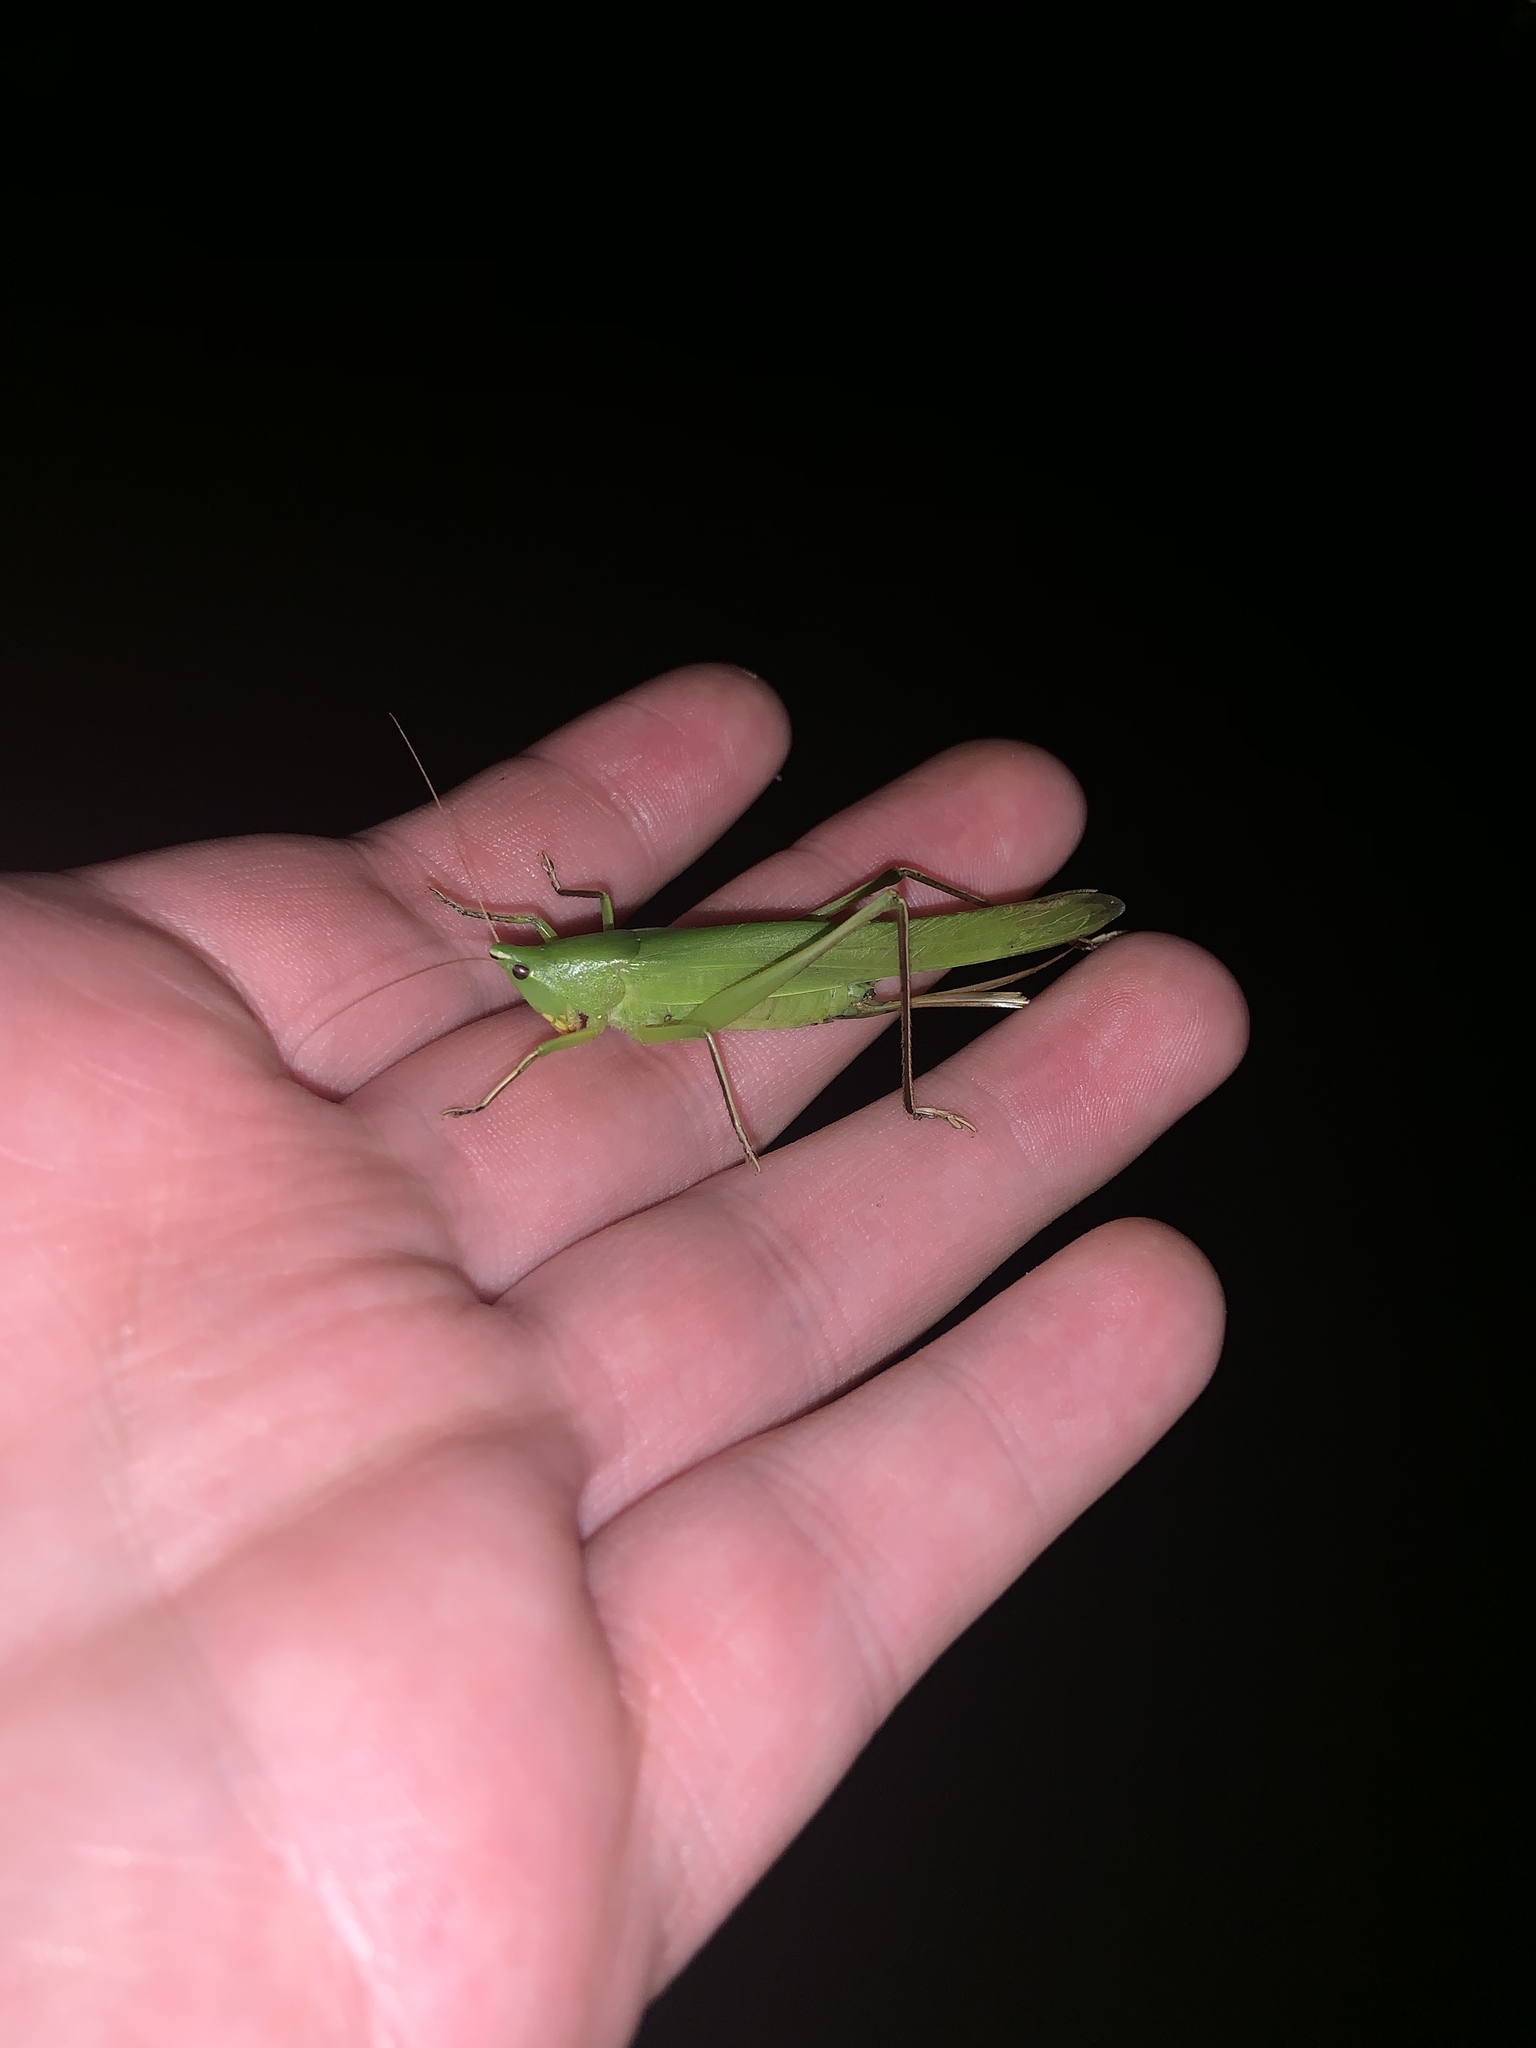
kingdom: Animalia
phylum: Arthropoda
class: Insecta
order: Orthoptera
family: Tettigoniidae
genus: Neoconocephalus
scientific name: Neoconocephalus triops
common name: Broad-tipped conehead
